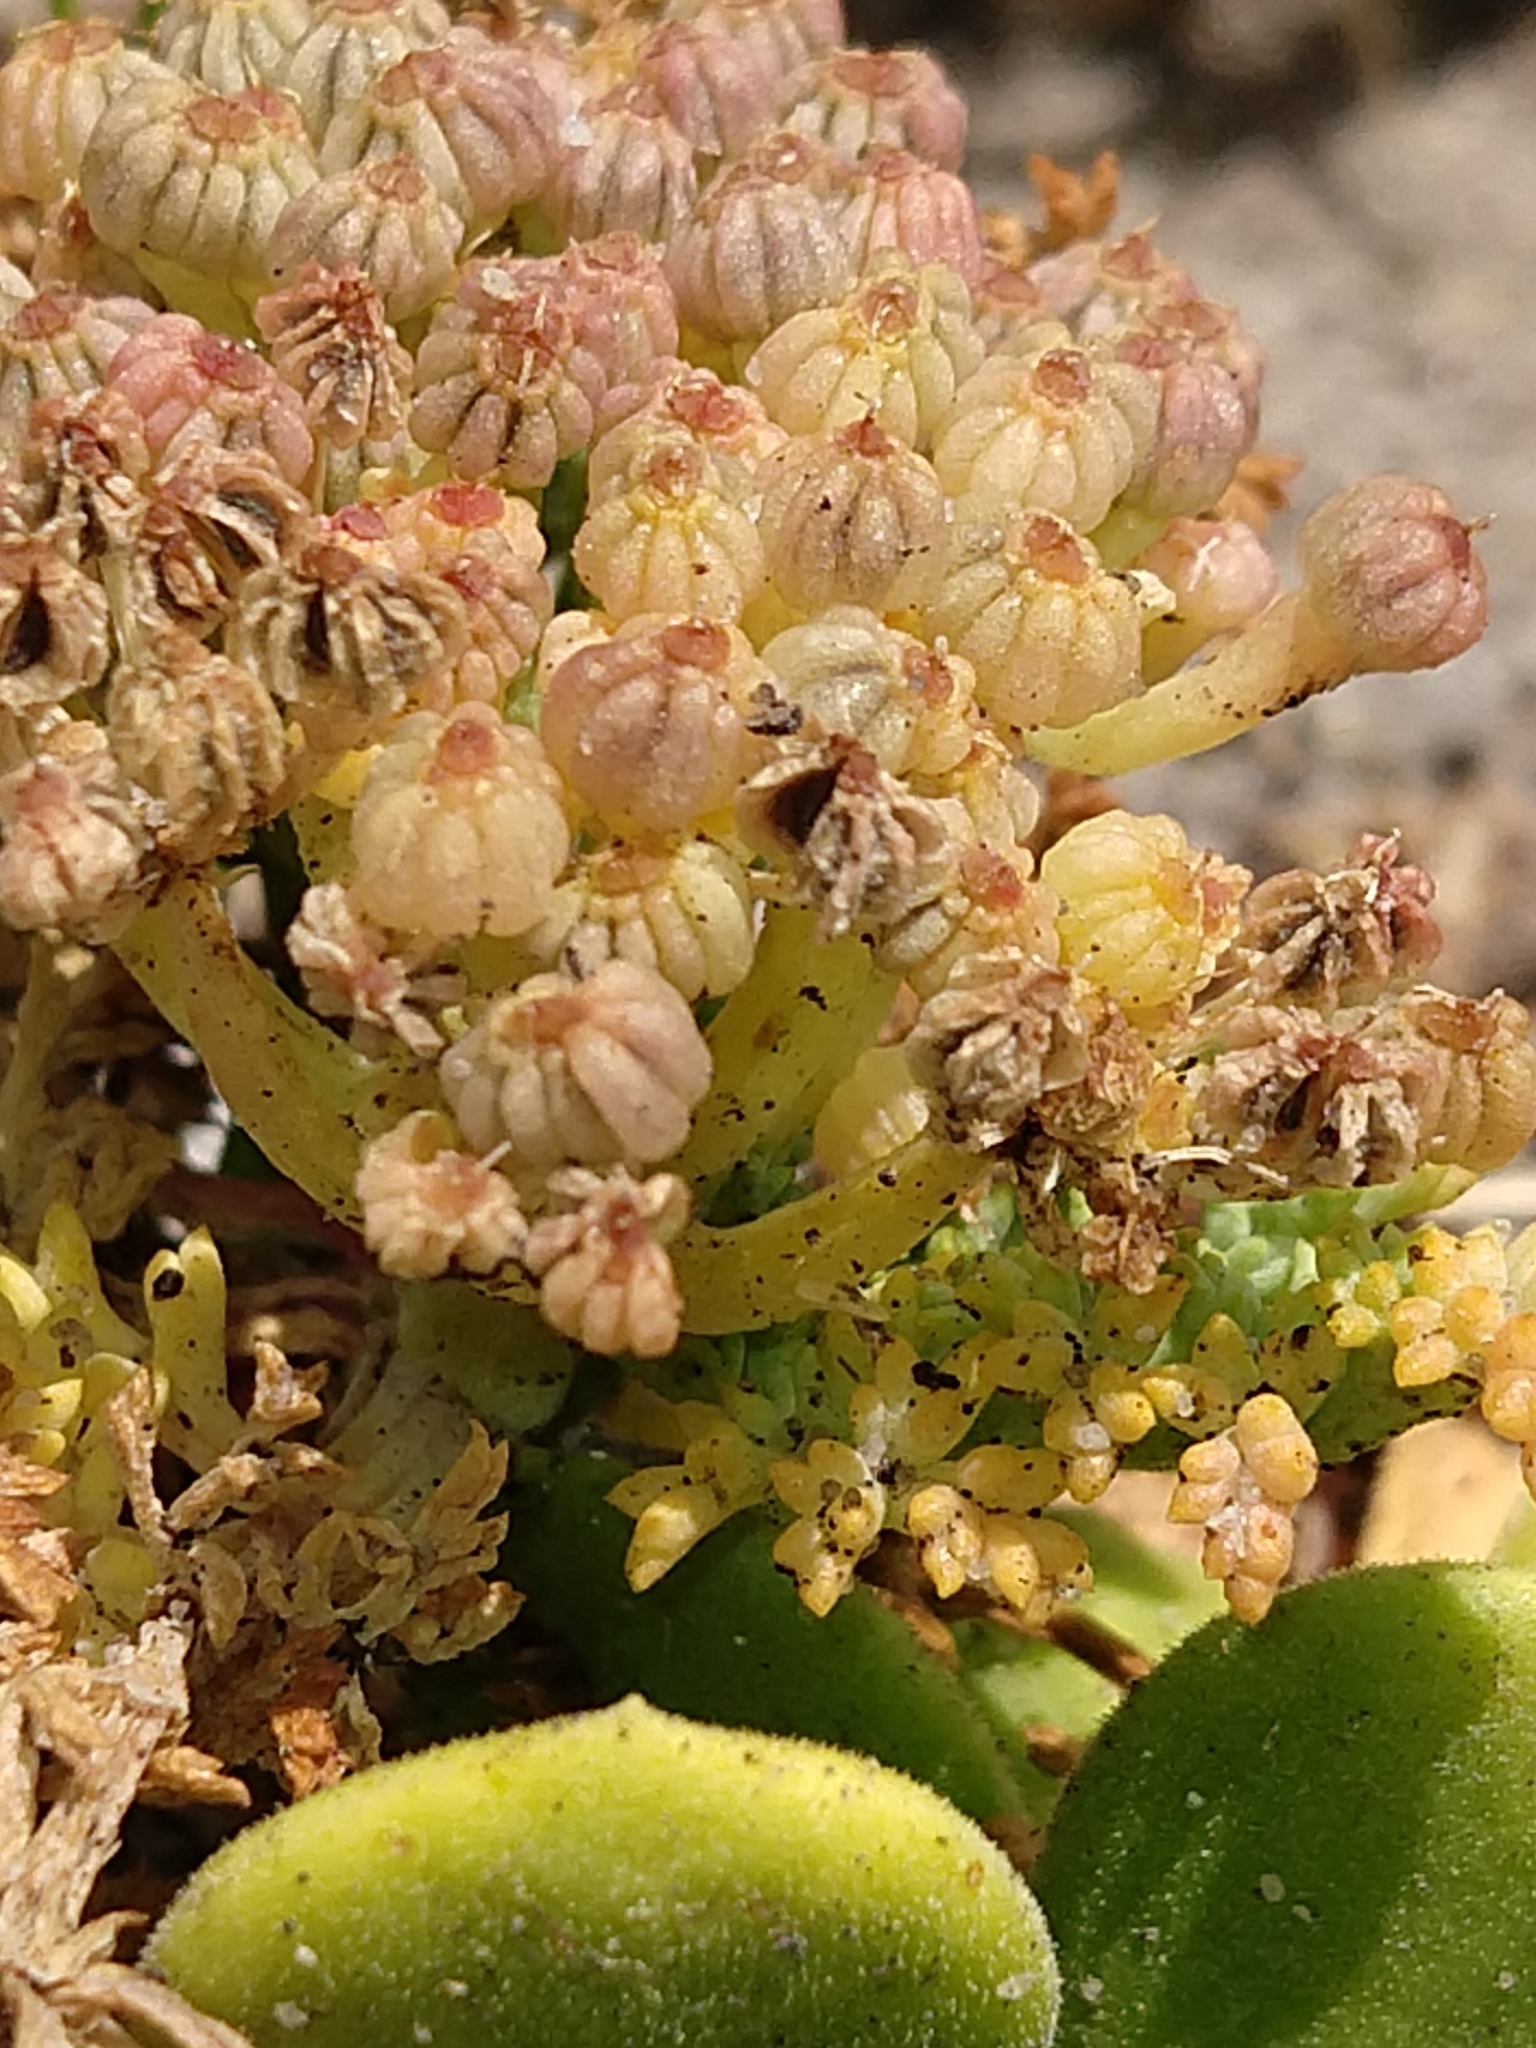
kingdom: Plantae
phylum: Tracheophyta
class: Magnoliopsida
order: Apiales
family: Apiaceae
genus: Dasispermum
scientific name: Dasispermum suffruticosum
